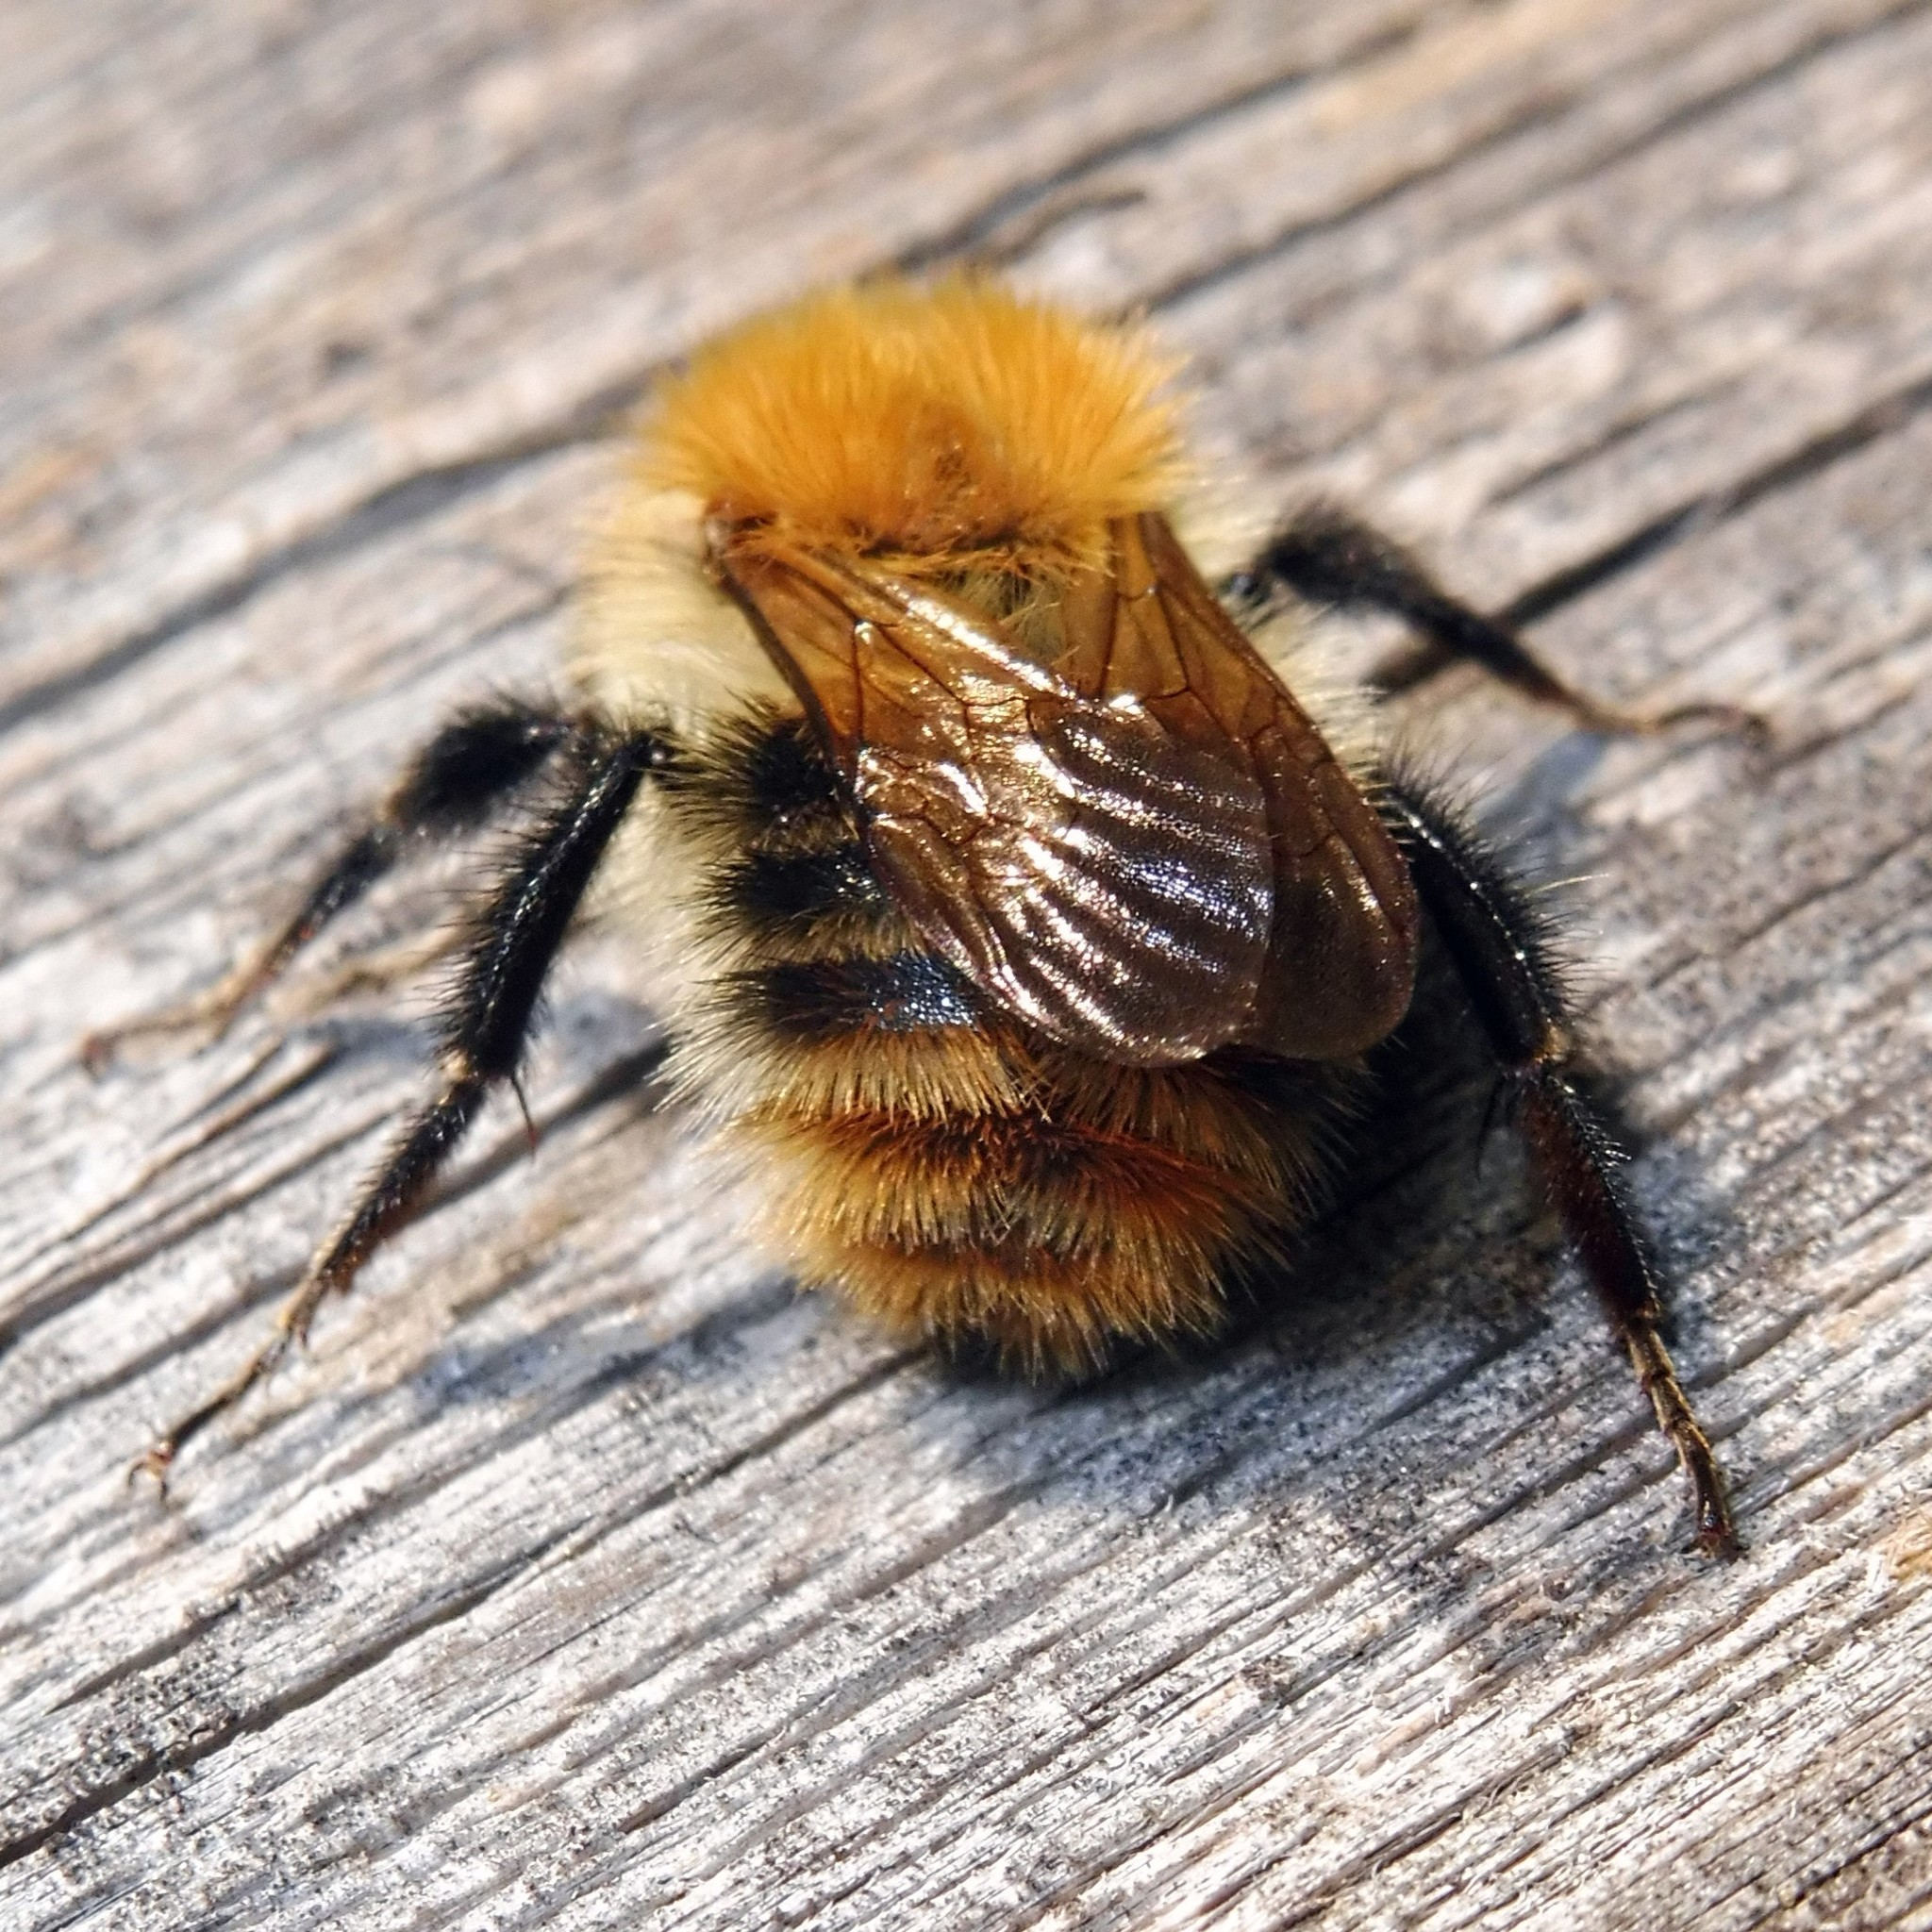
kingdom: Animalia
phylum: Arthropoda
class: Insecta
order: Hymenoptera
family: Apidae
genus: Bombus
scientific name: Bombus pascuorum
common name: Common carder bee
